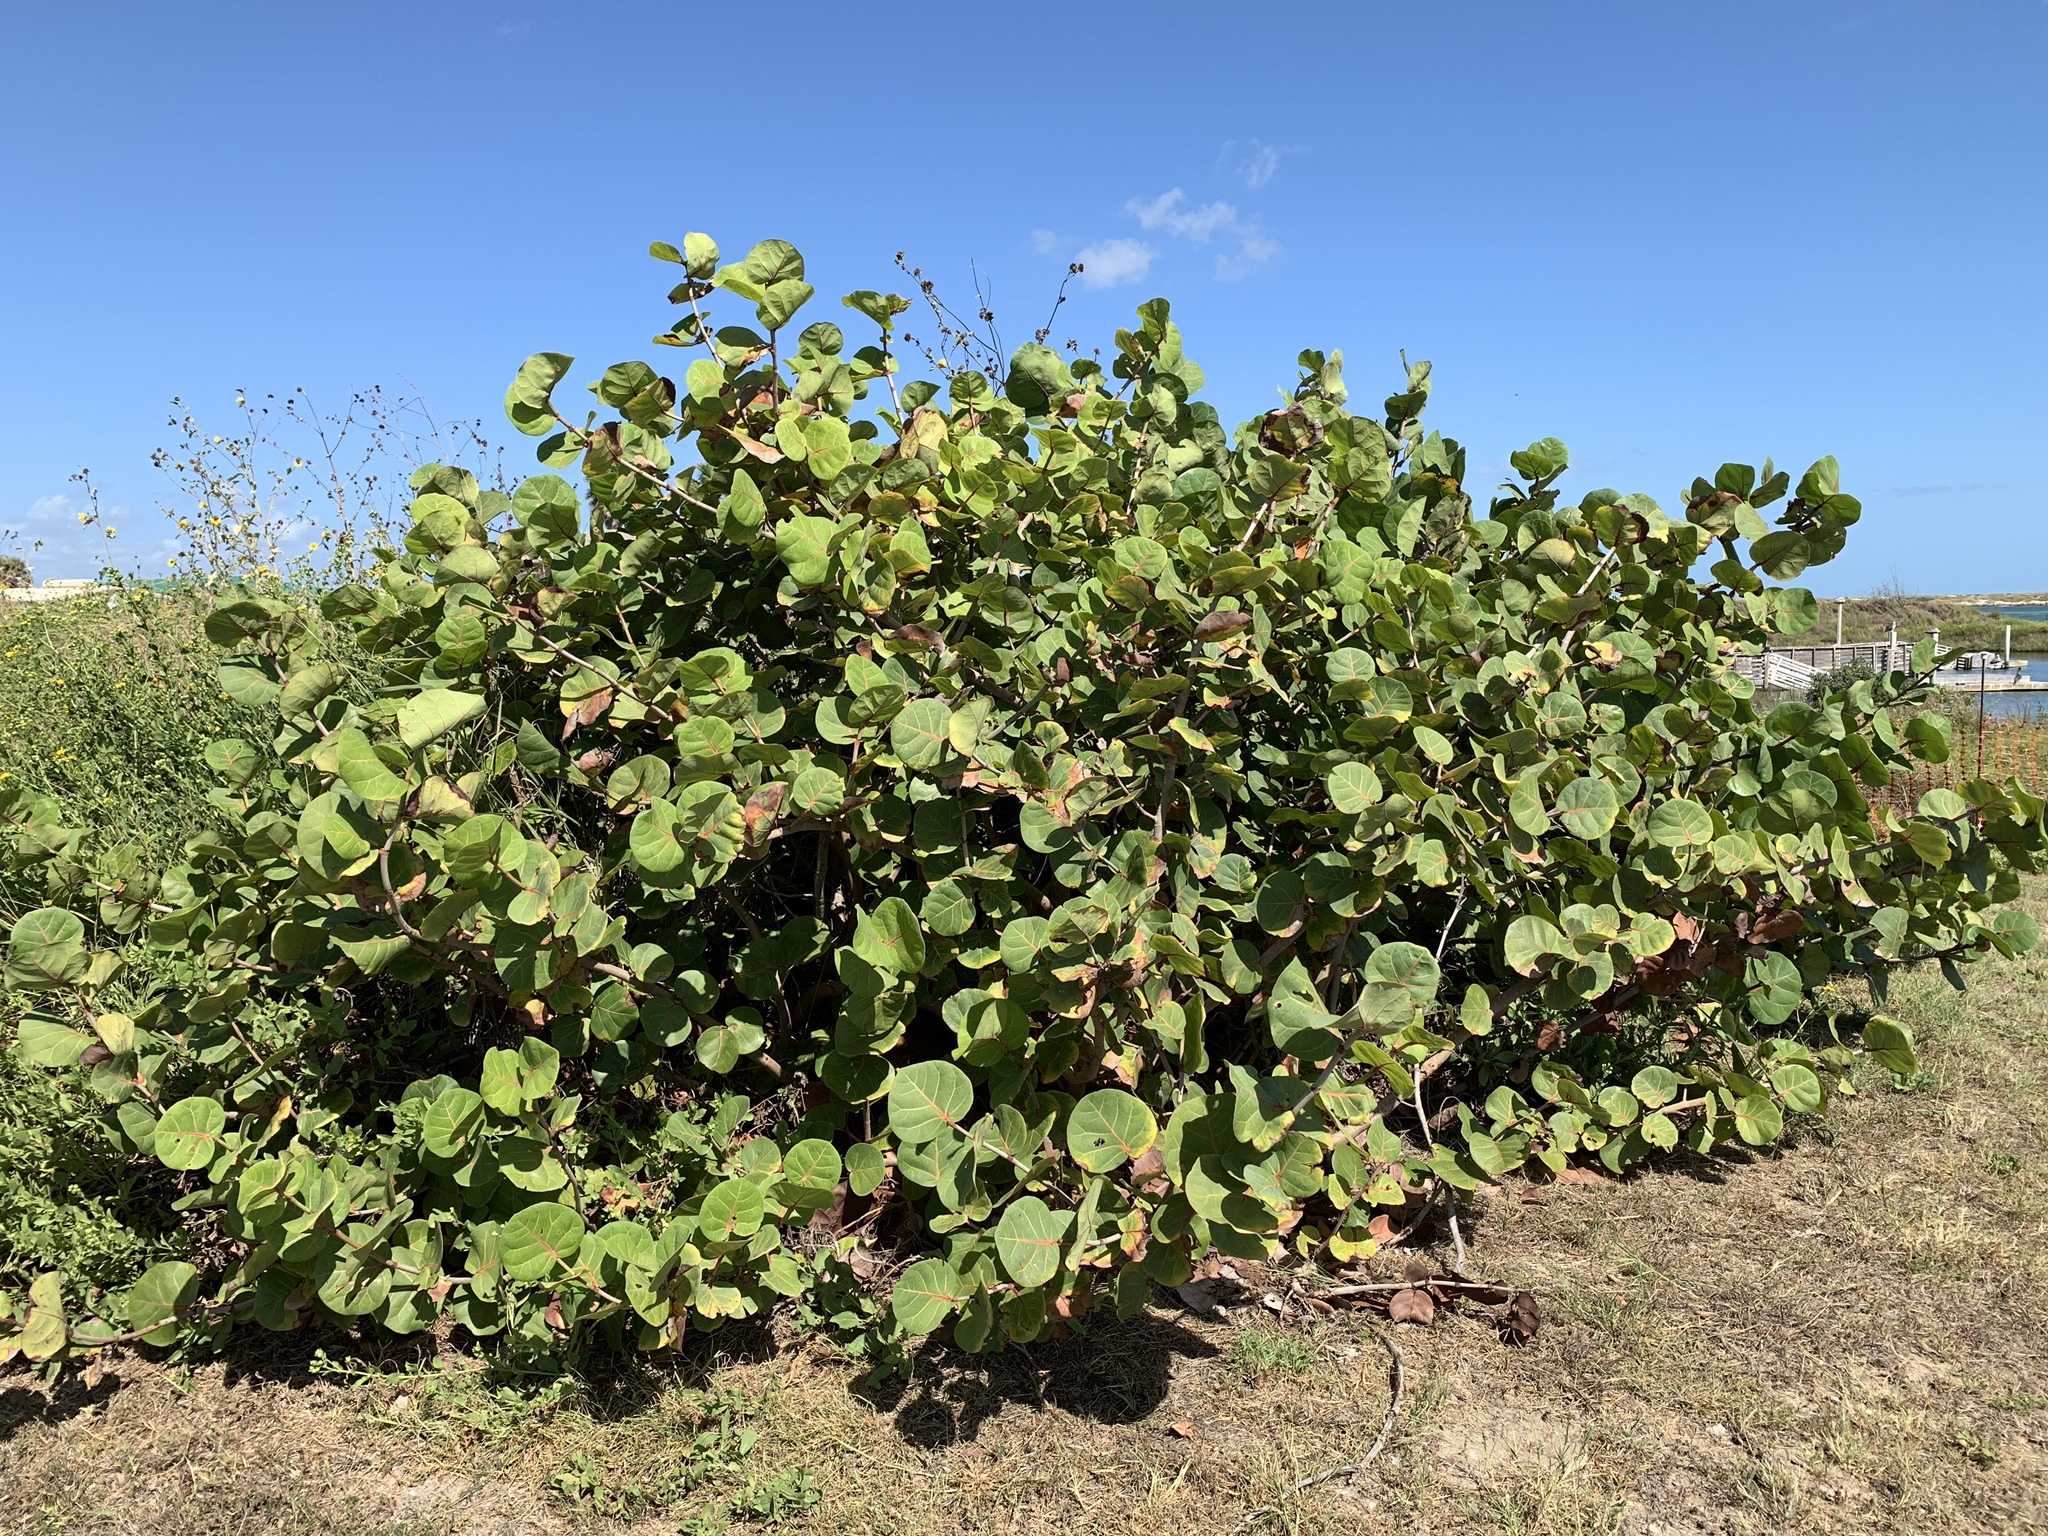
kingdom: Plantae
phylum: Tracheophyta
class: Magnoliopsida
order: Caryophyllales
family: Polygonaceae
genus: Coccoloba
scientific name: Coccoloba uvifera
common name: Seagrape
